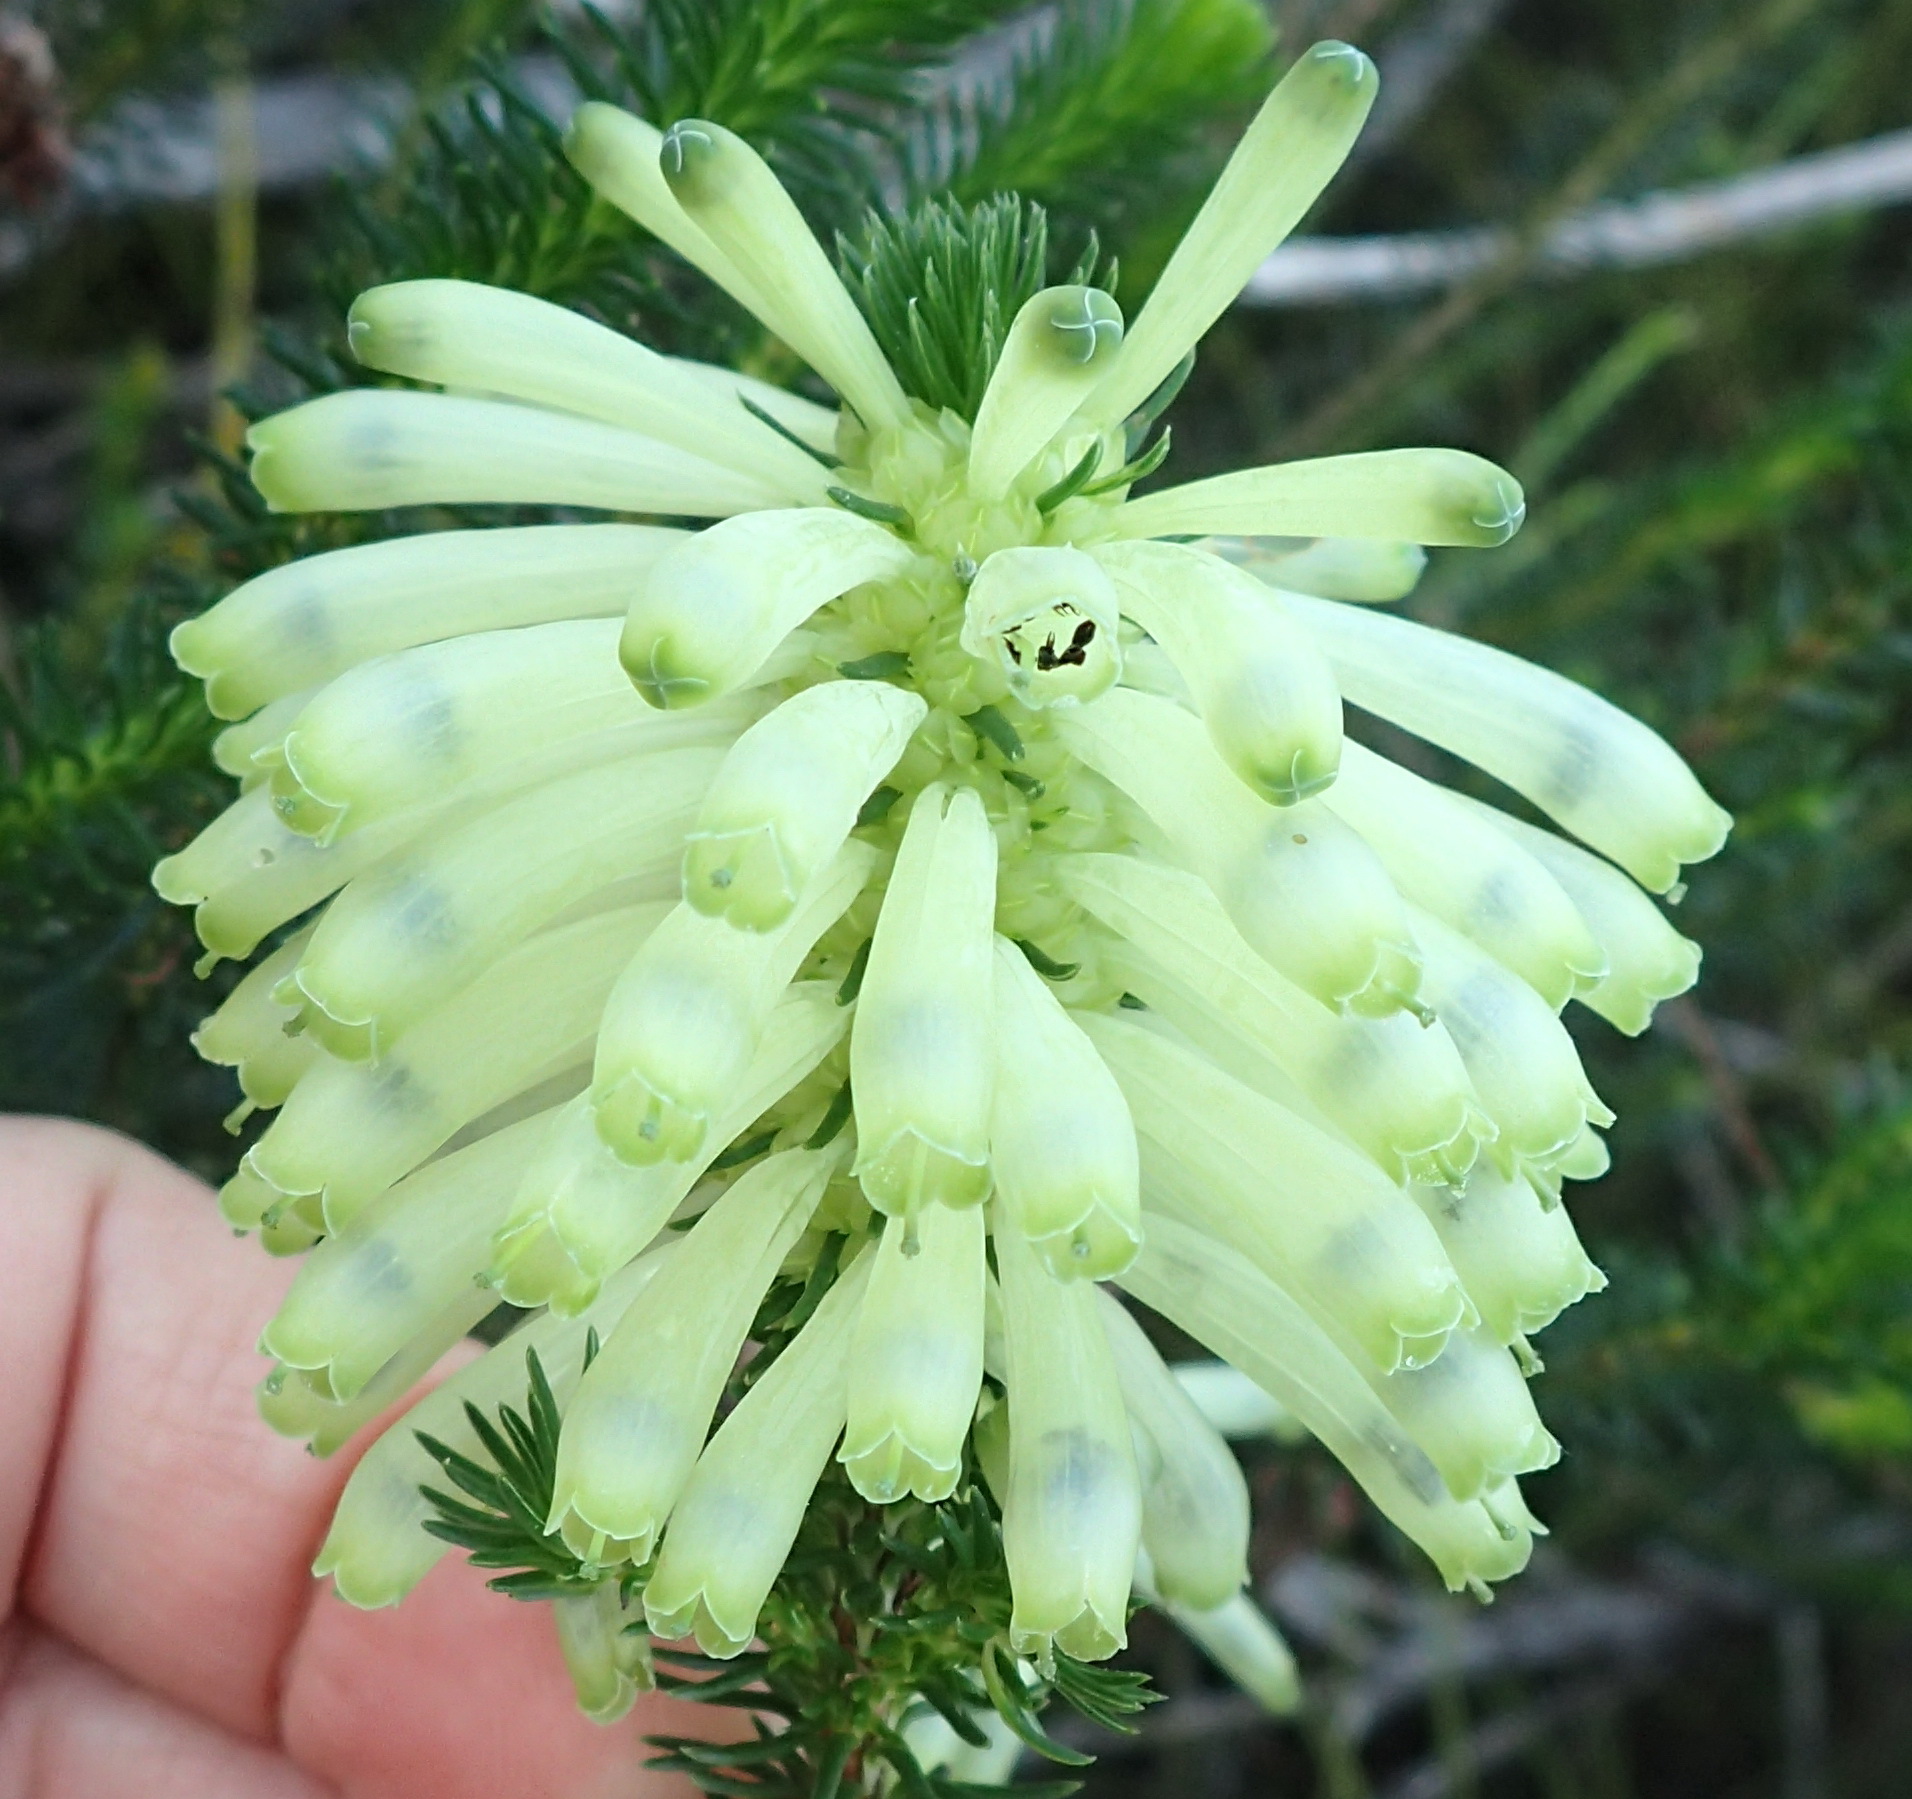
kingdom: Plantae
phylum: Tracheophyta
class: Magnoliopsida
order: Ericales
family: Ericaceae
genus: Erica
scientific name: Erica sessiliflora
